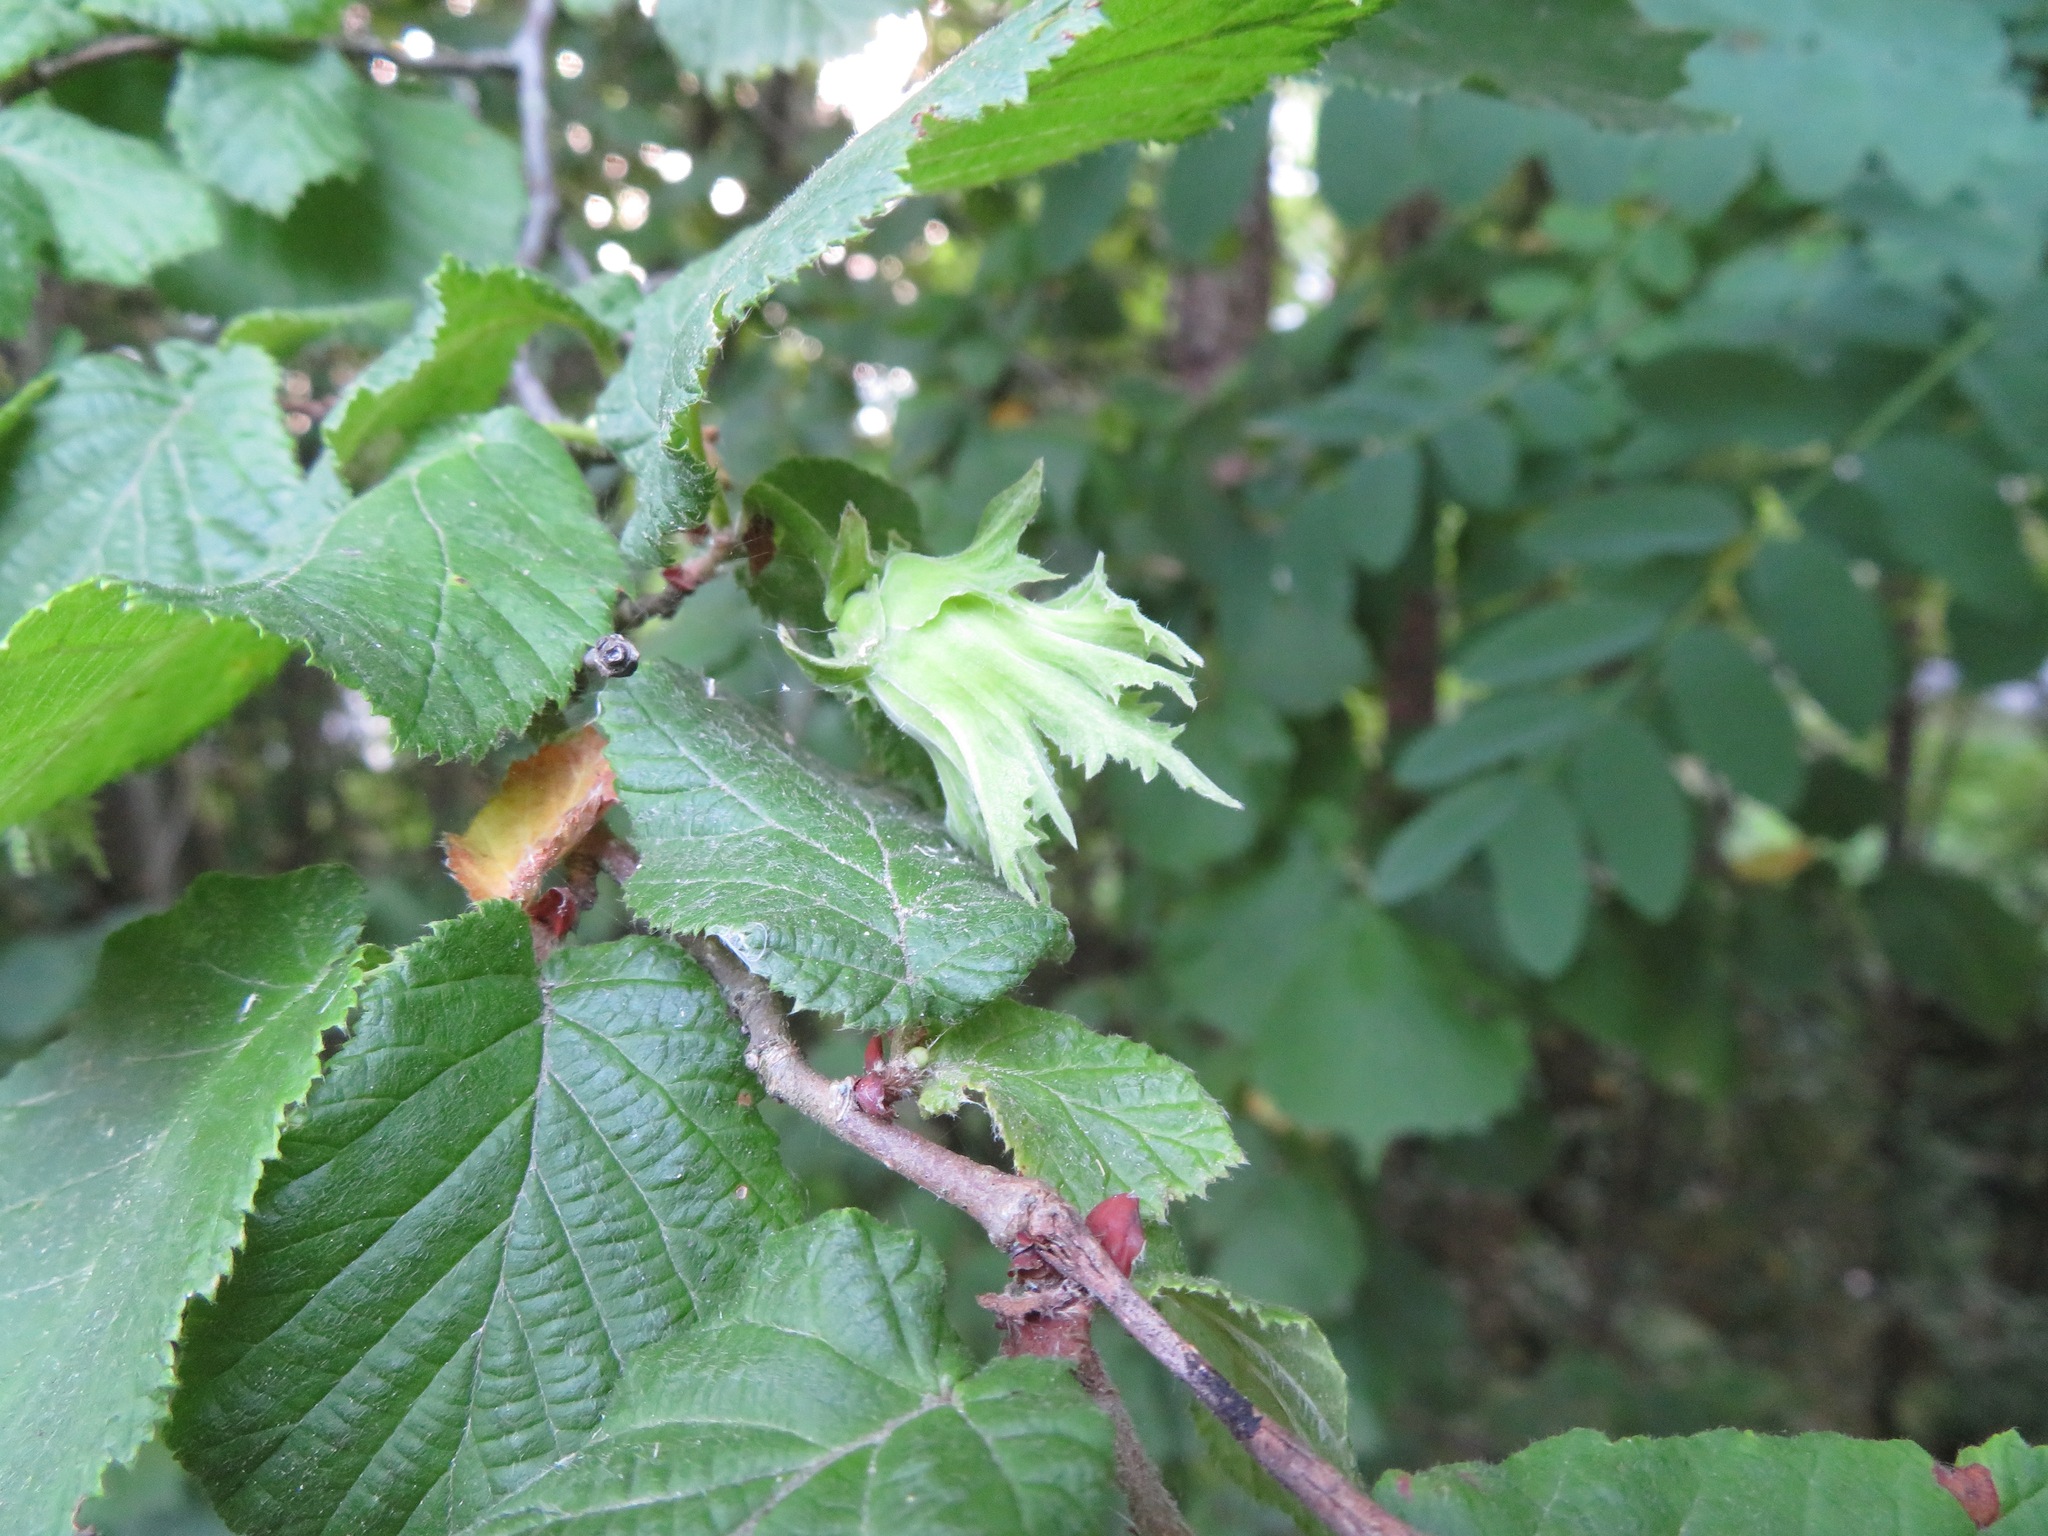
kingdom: Plantae
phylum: Tracheophyta
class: Magnoliopsida
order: Fagales
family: Betulaceae
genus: Corylus
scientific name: Corylus avellana
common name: European hazel
